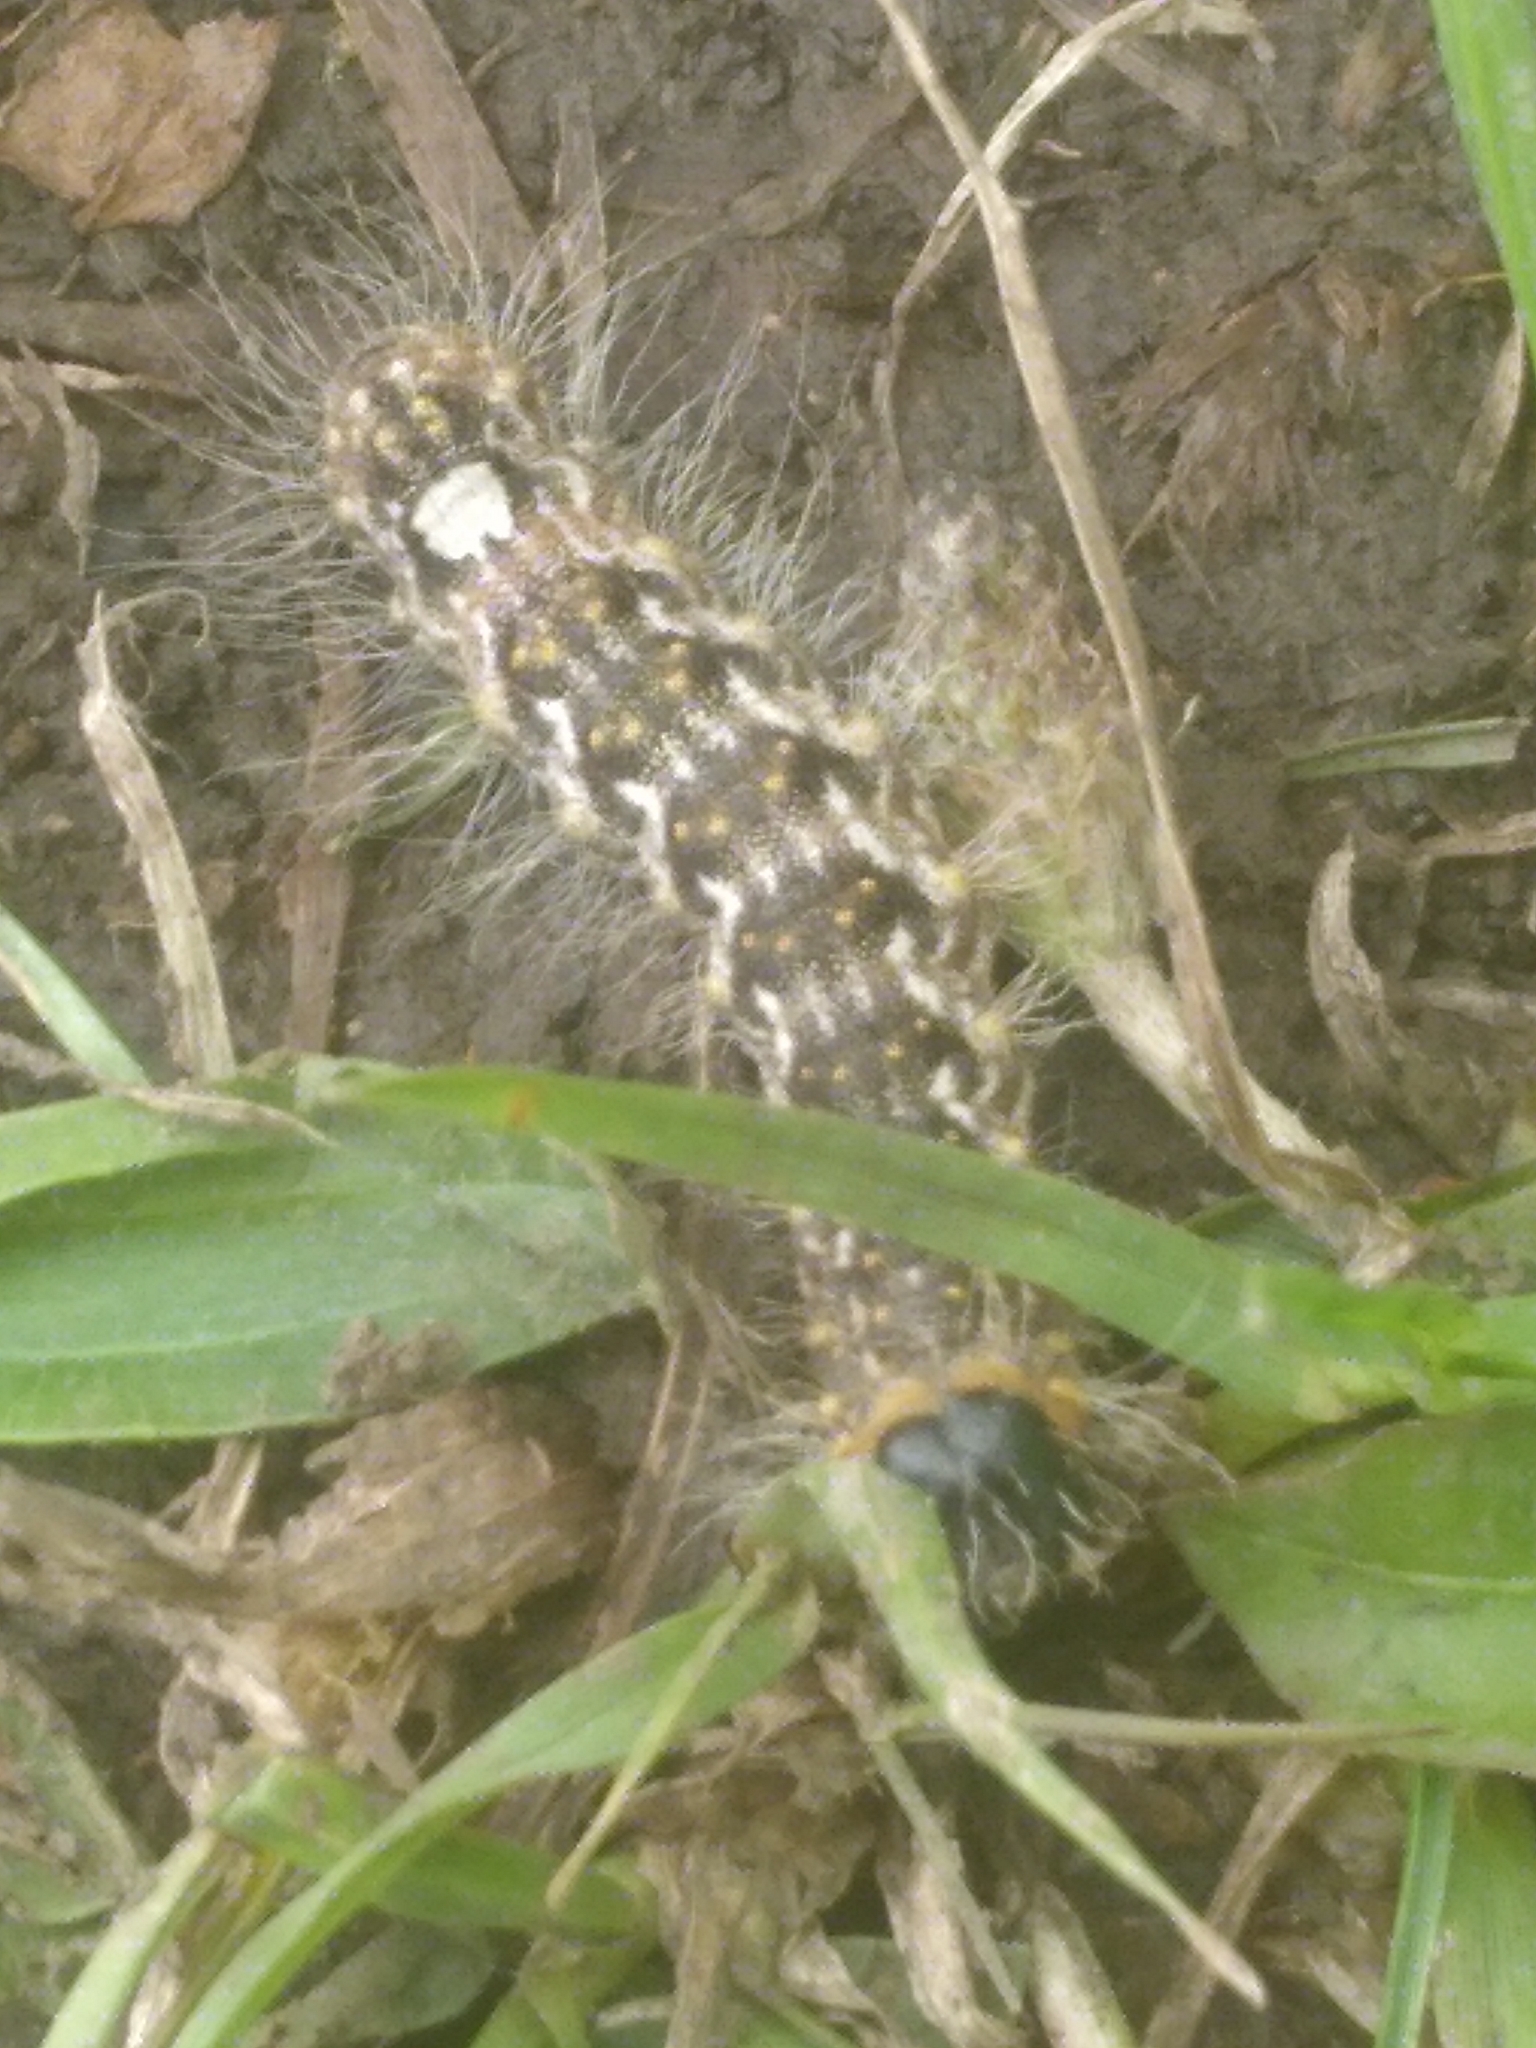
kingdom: Animalia
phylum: Arthropoda
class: Insecta
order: Lepidoptera
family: Noctuidae
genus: Acronicta
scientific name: Acronicta megacephala
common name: Poplar grey
